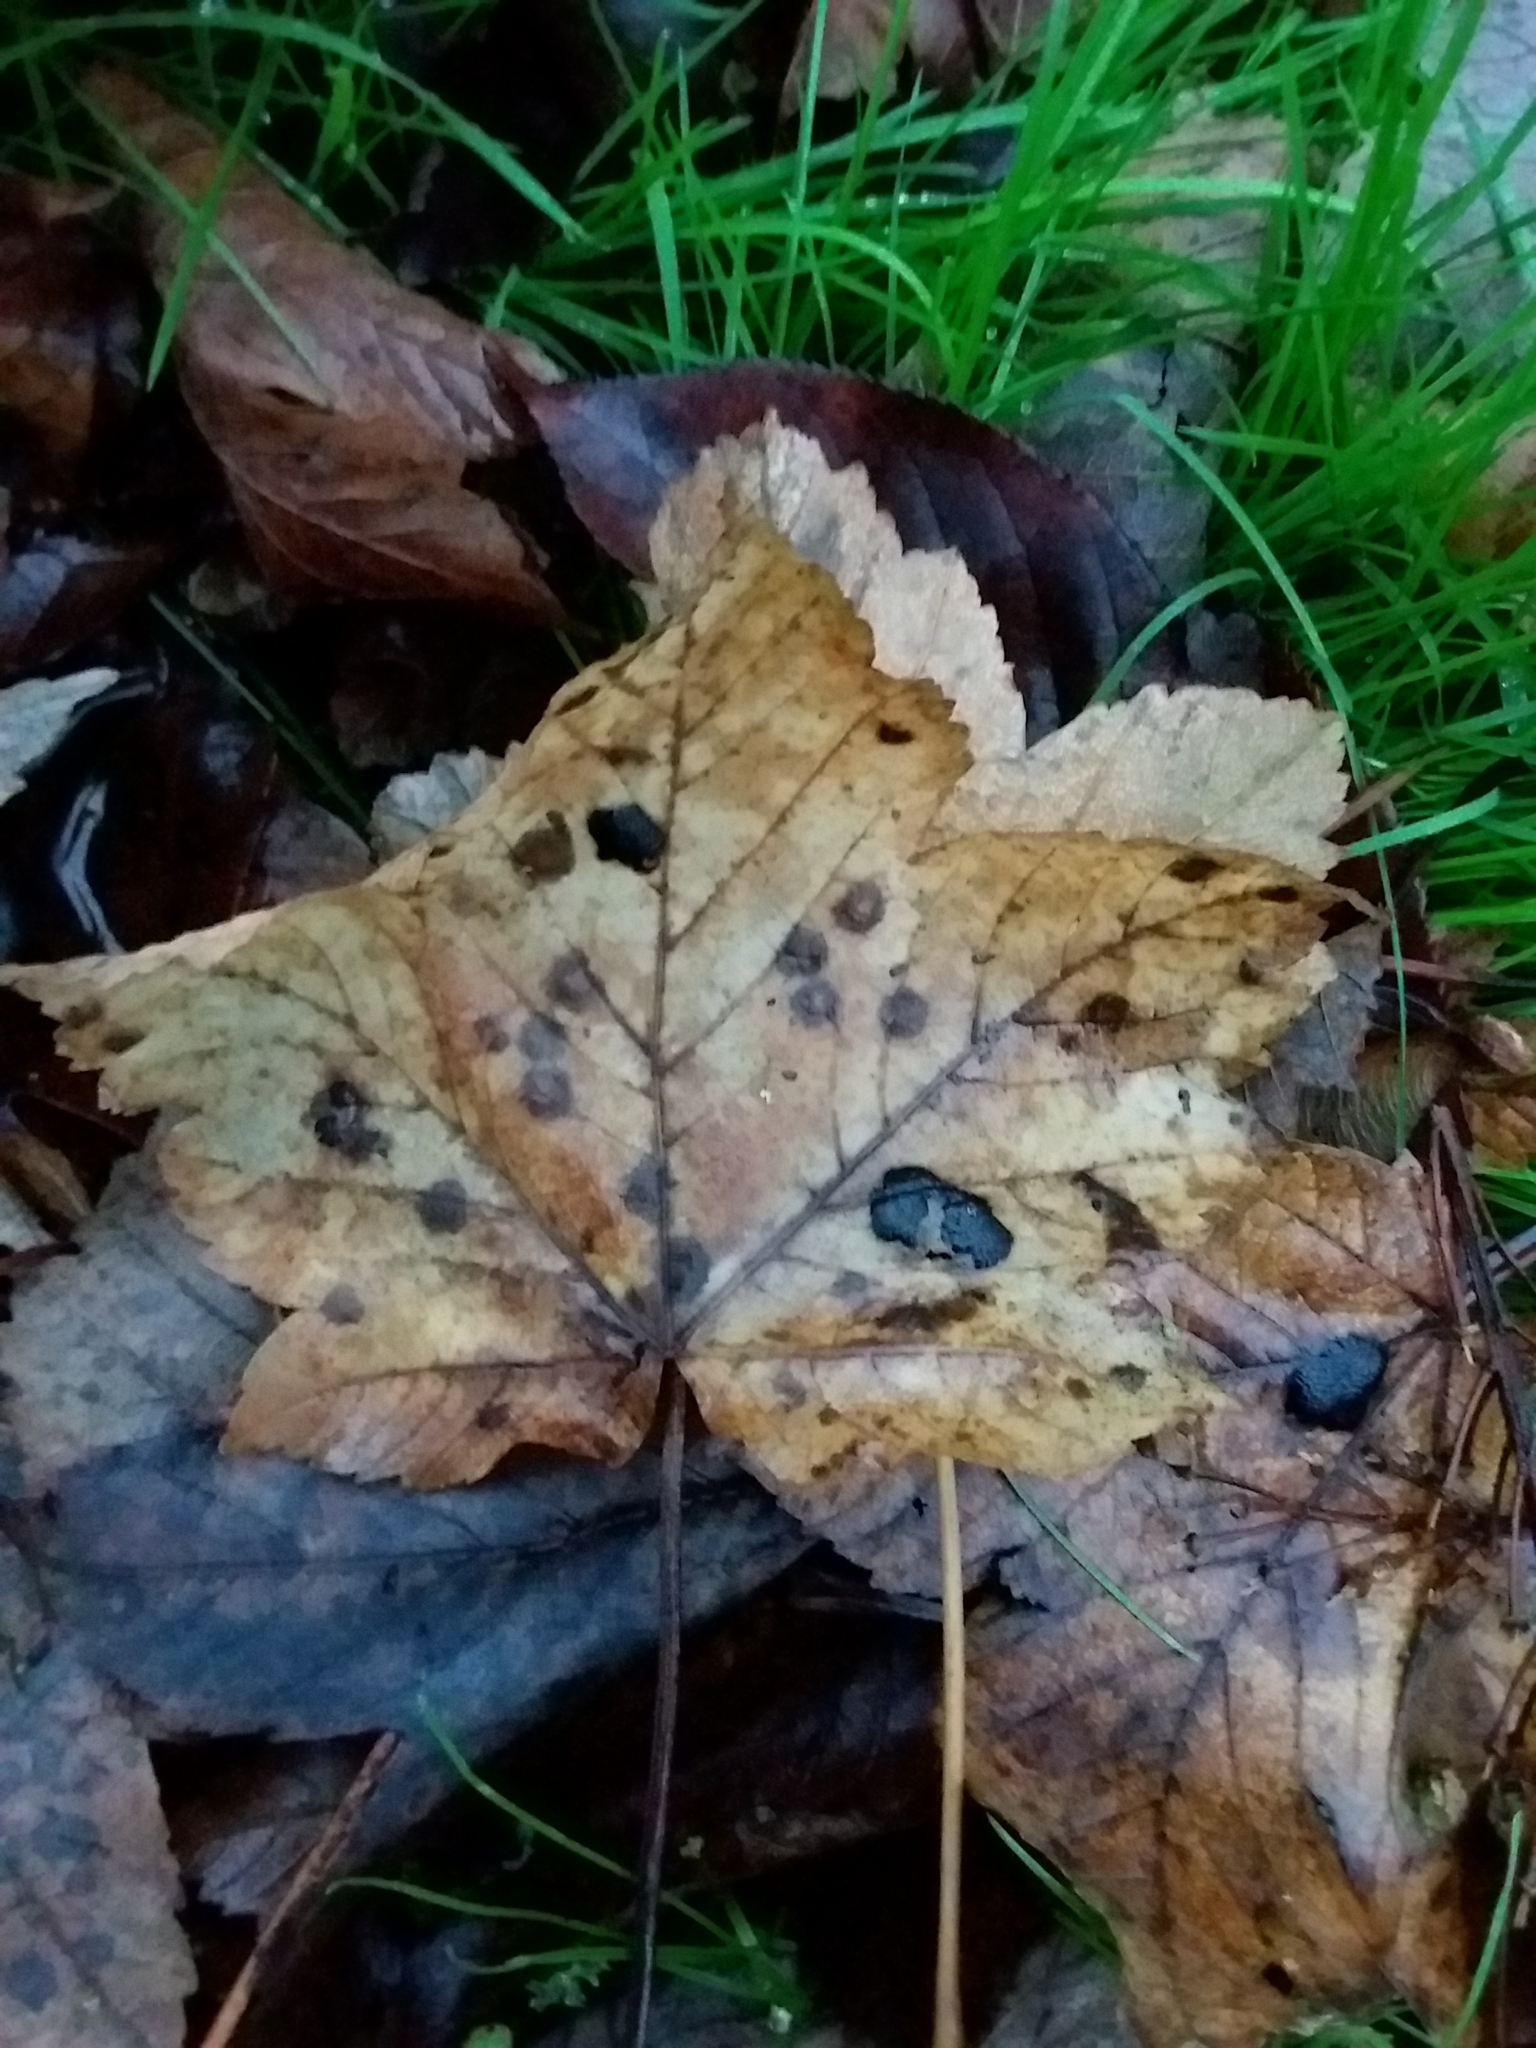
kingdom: Fungi
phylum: Ascomycota
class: Leotiomycetes
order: Rhytismatales
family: Rhytismataceae
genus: Rhytisma
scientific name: Rhytisma acerinum
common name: European tar spot
